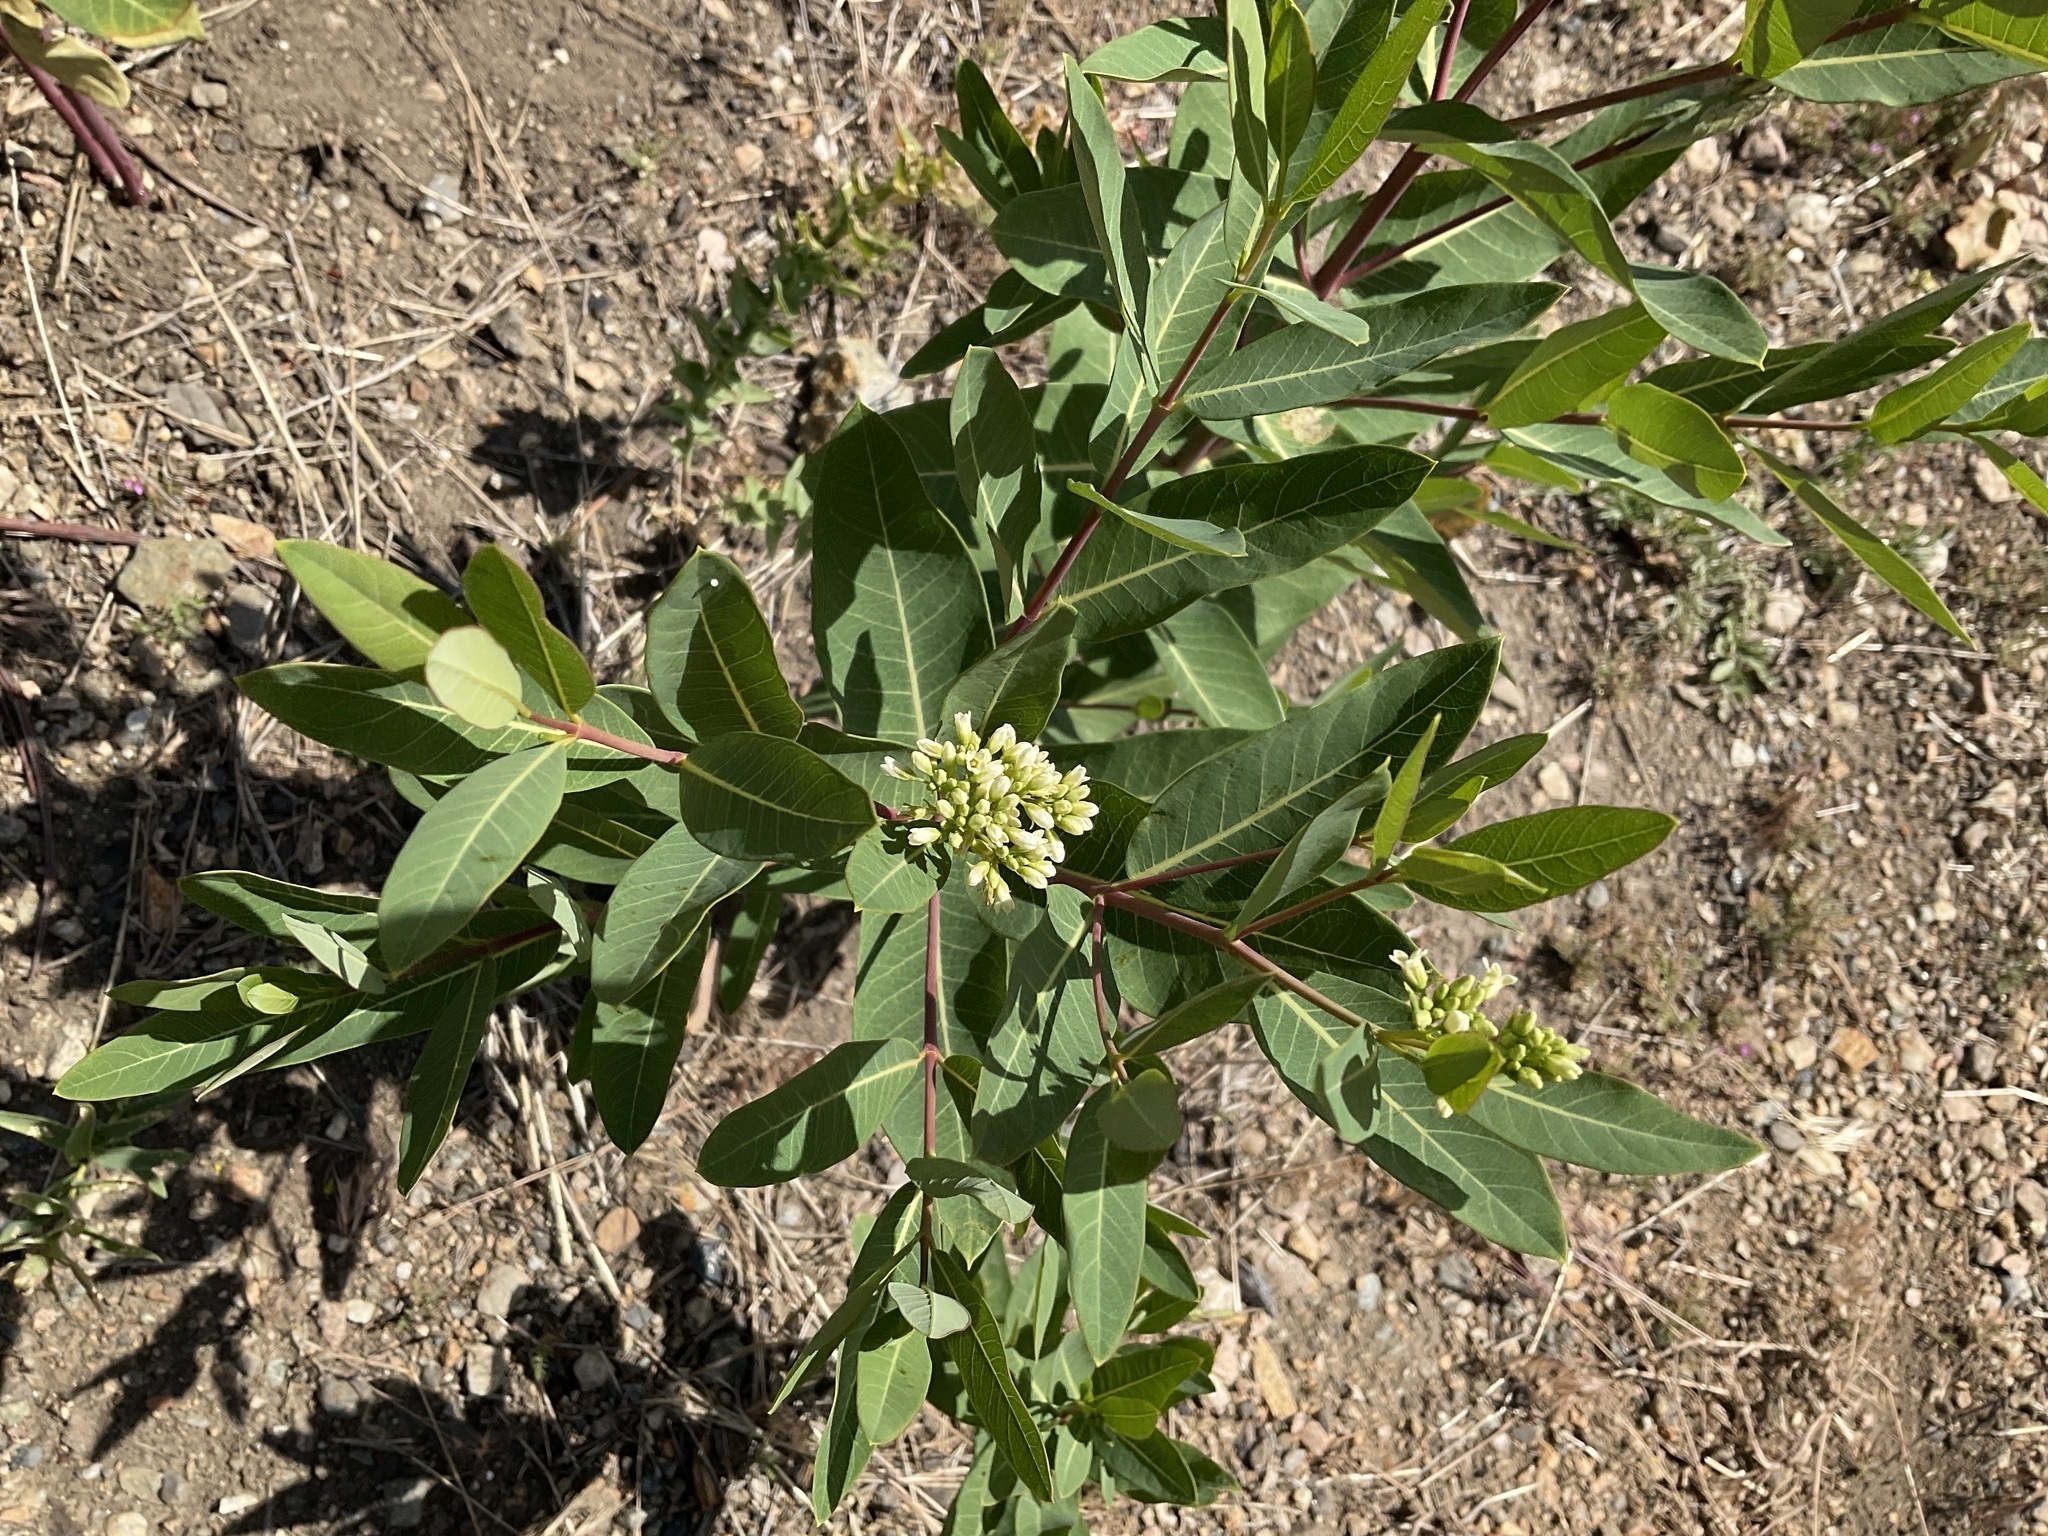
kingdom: Plantae
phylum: Tracheophyta
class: Magnoliopsida
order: Gentianales
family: Apocynaceae
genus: Apocynum
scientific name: Apocynum cannabinum
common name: Hemp dogbane
